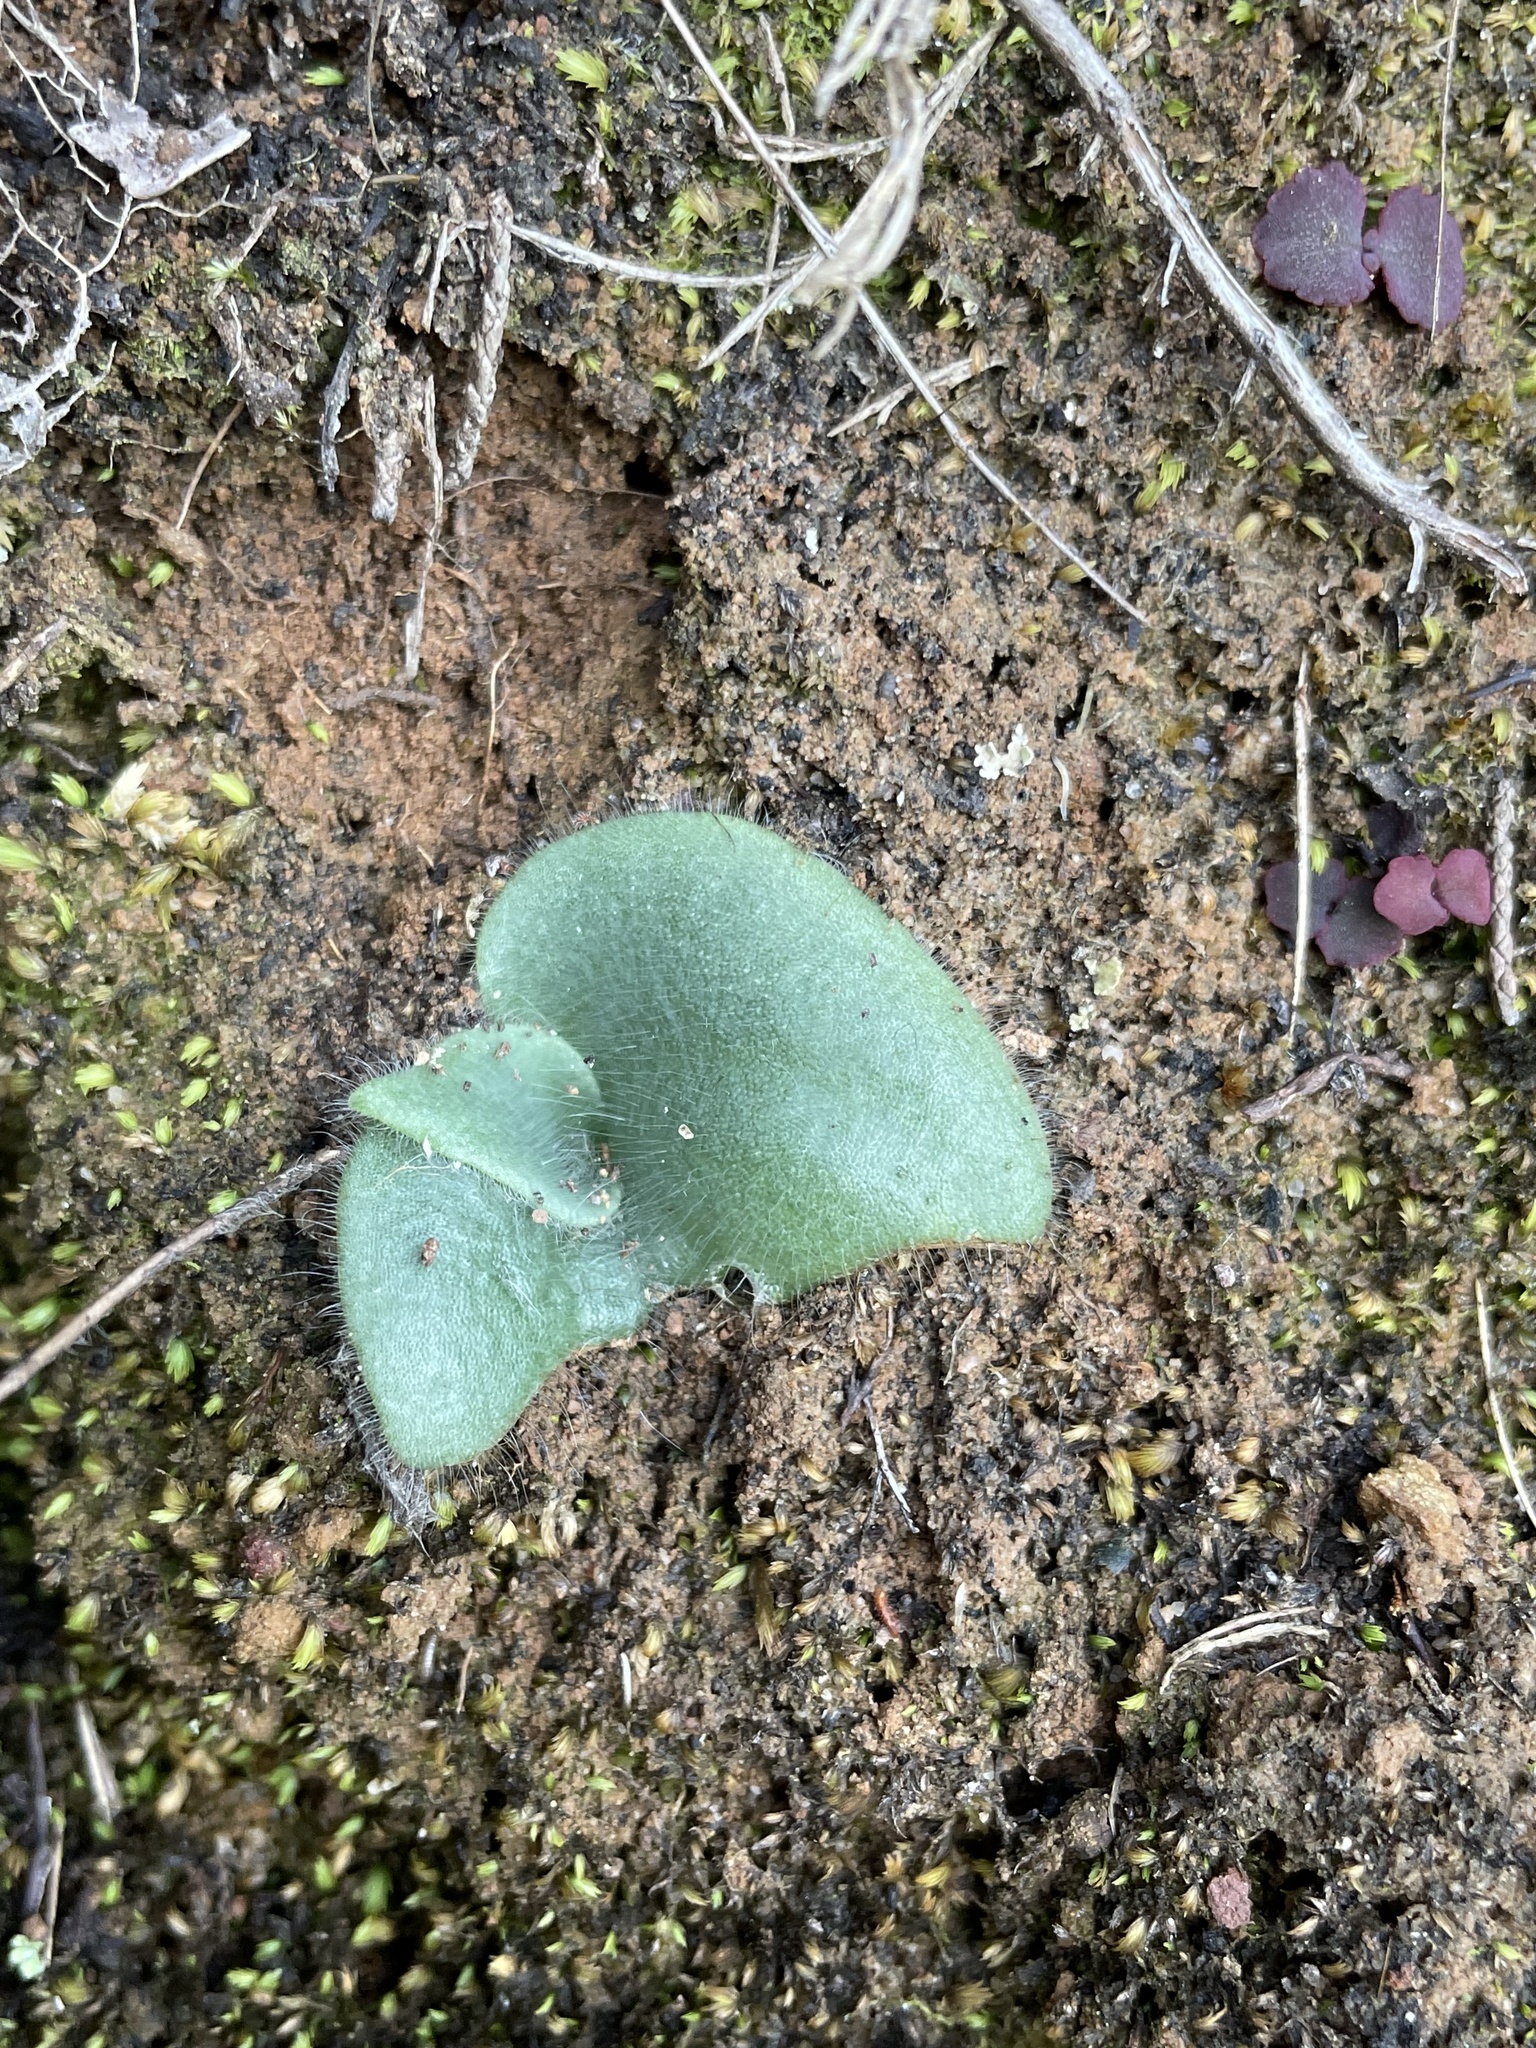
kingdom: Plantae
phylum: Tracheophyta
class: Liliopsida
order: Asparagales
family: Orchidaceae
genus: Holothrix
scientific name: Holothrix villosa
